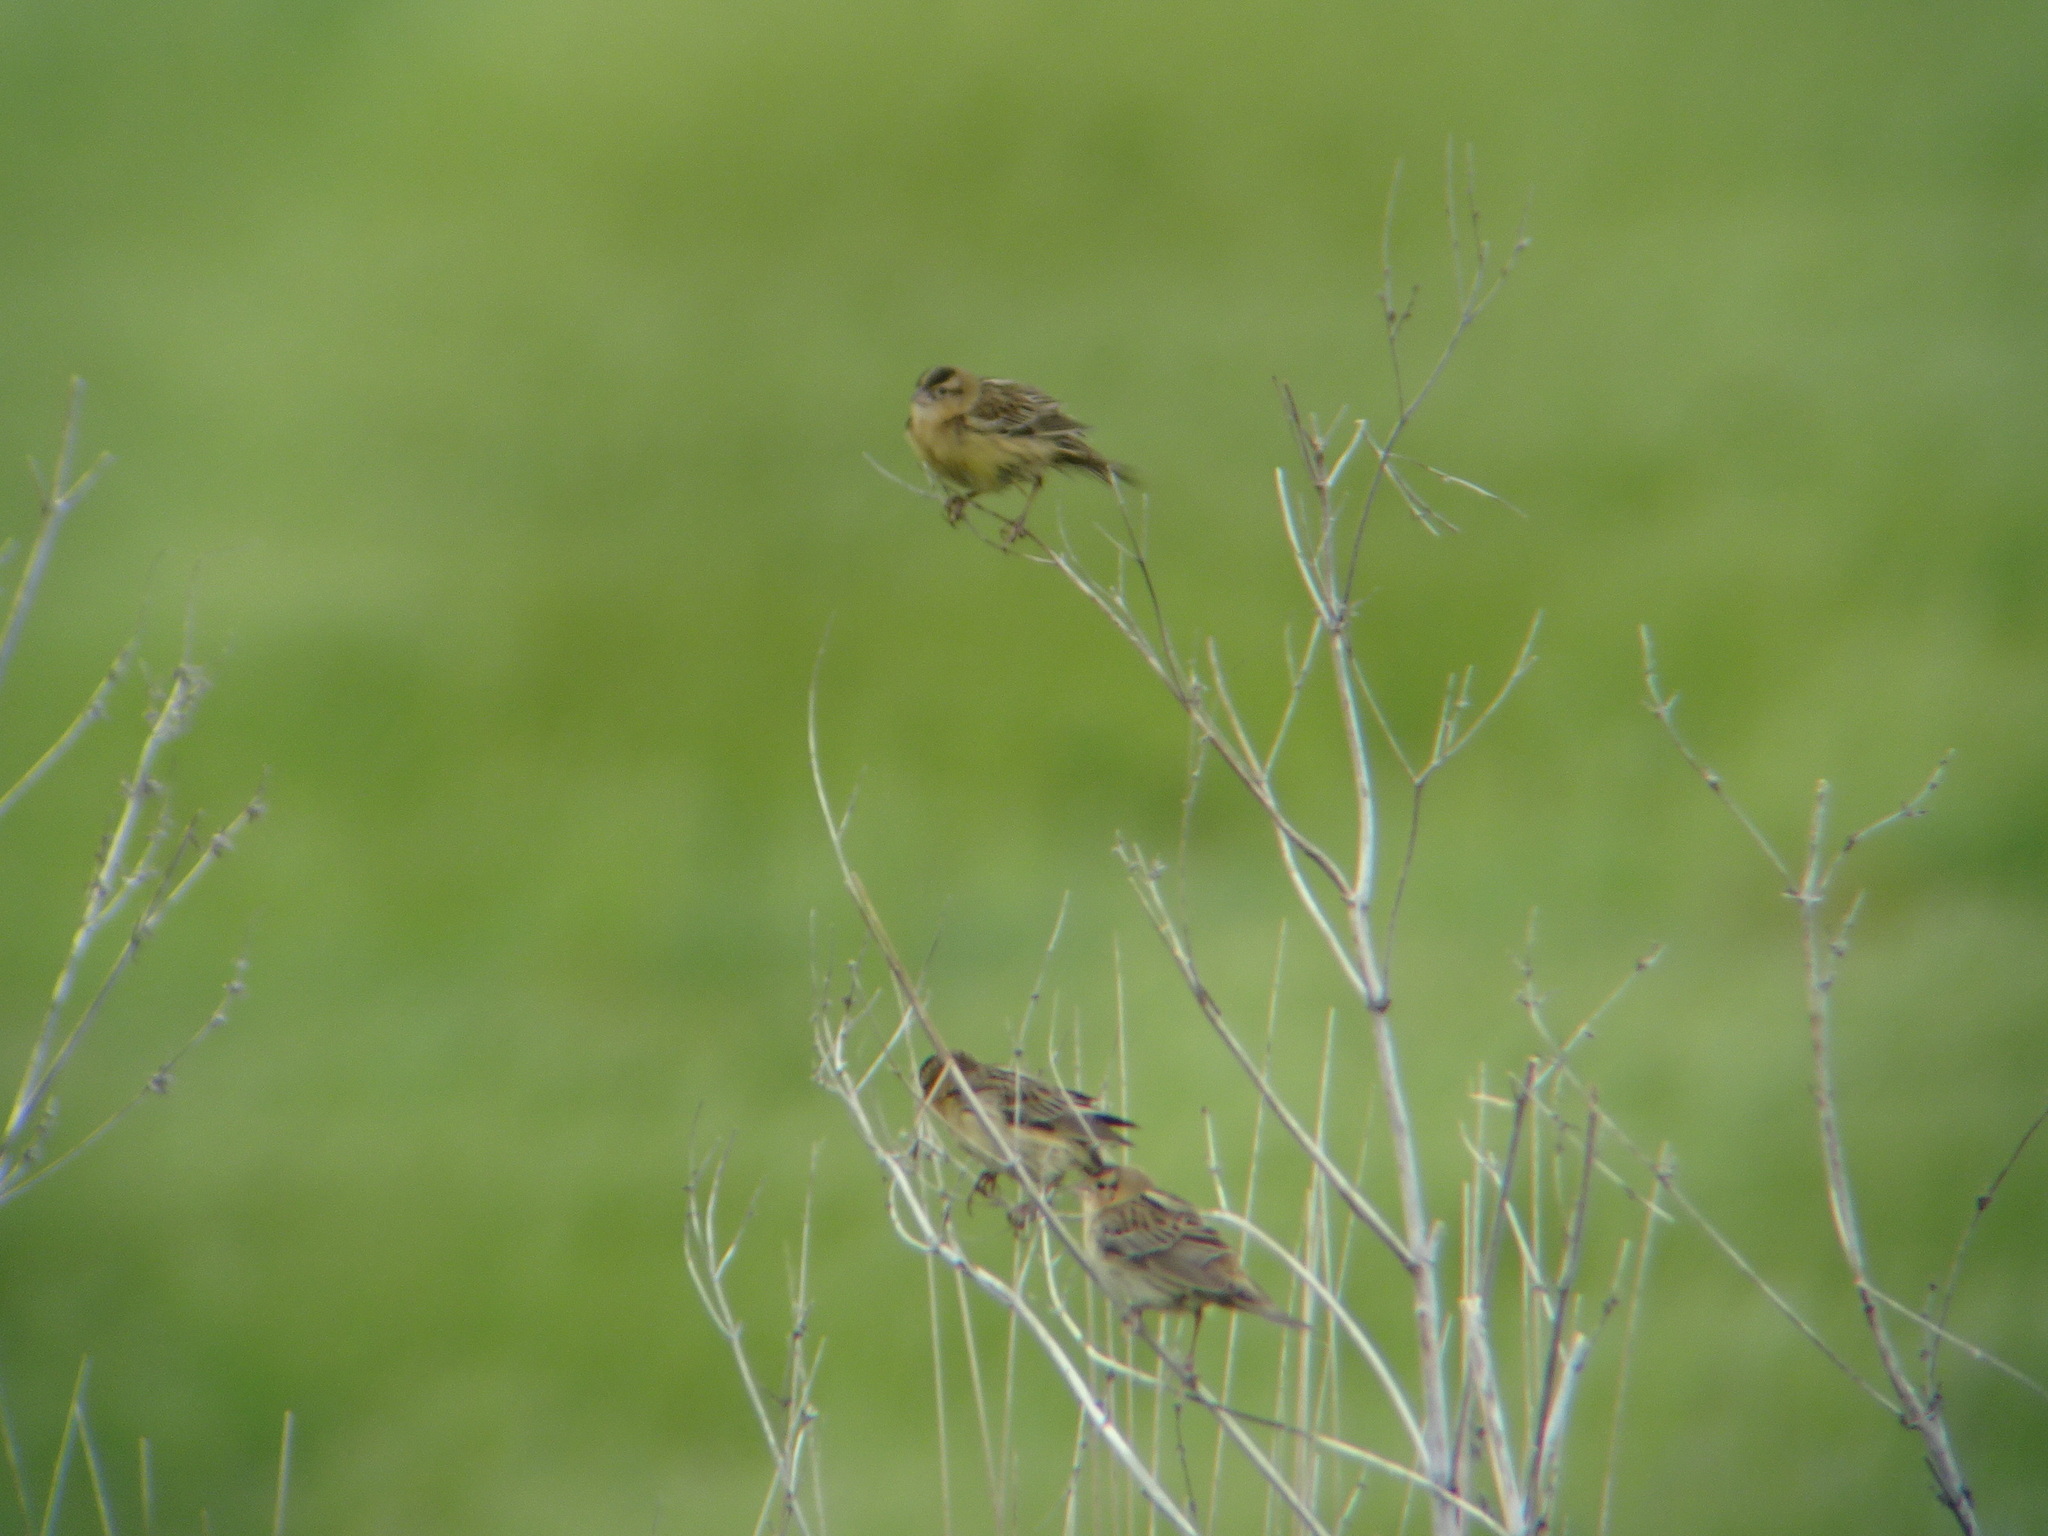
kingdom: Animalia
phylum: Chordata
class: Aves
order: Passeriformes
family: Icteridae
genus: Dolichonyx
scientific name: Dolichonyx oryzivorus
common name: Bobolink
